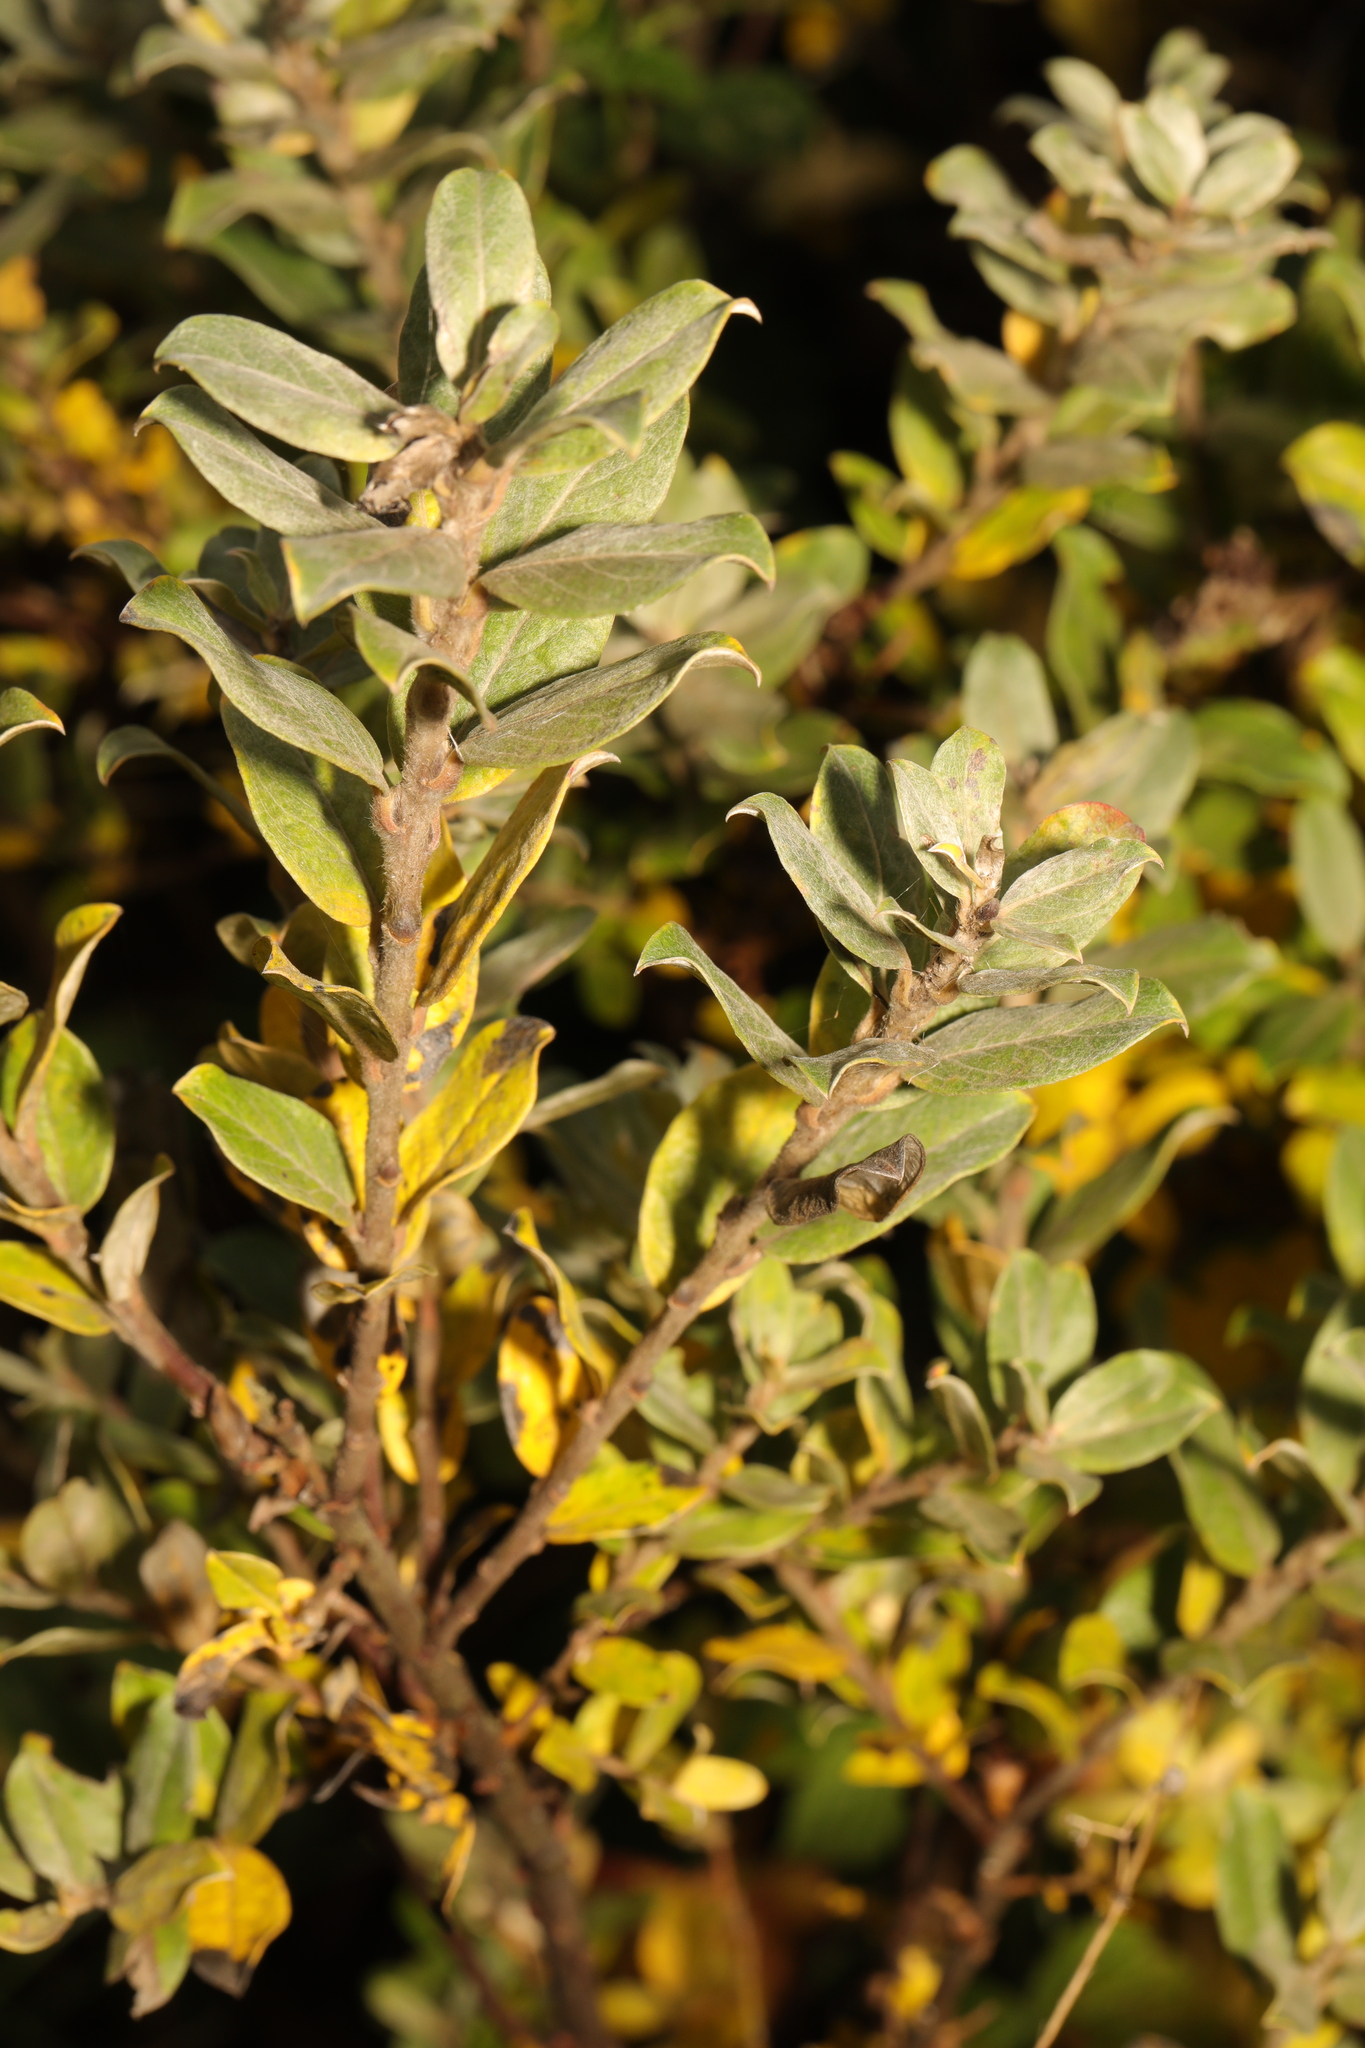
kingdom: Plantae
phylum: Tracheophyta
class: Magnoliopsida
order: Malpighiales
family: Salicaceae
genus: Salix
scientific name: Salix repens
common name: Creeping willow
